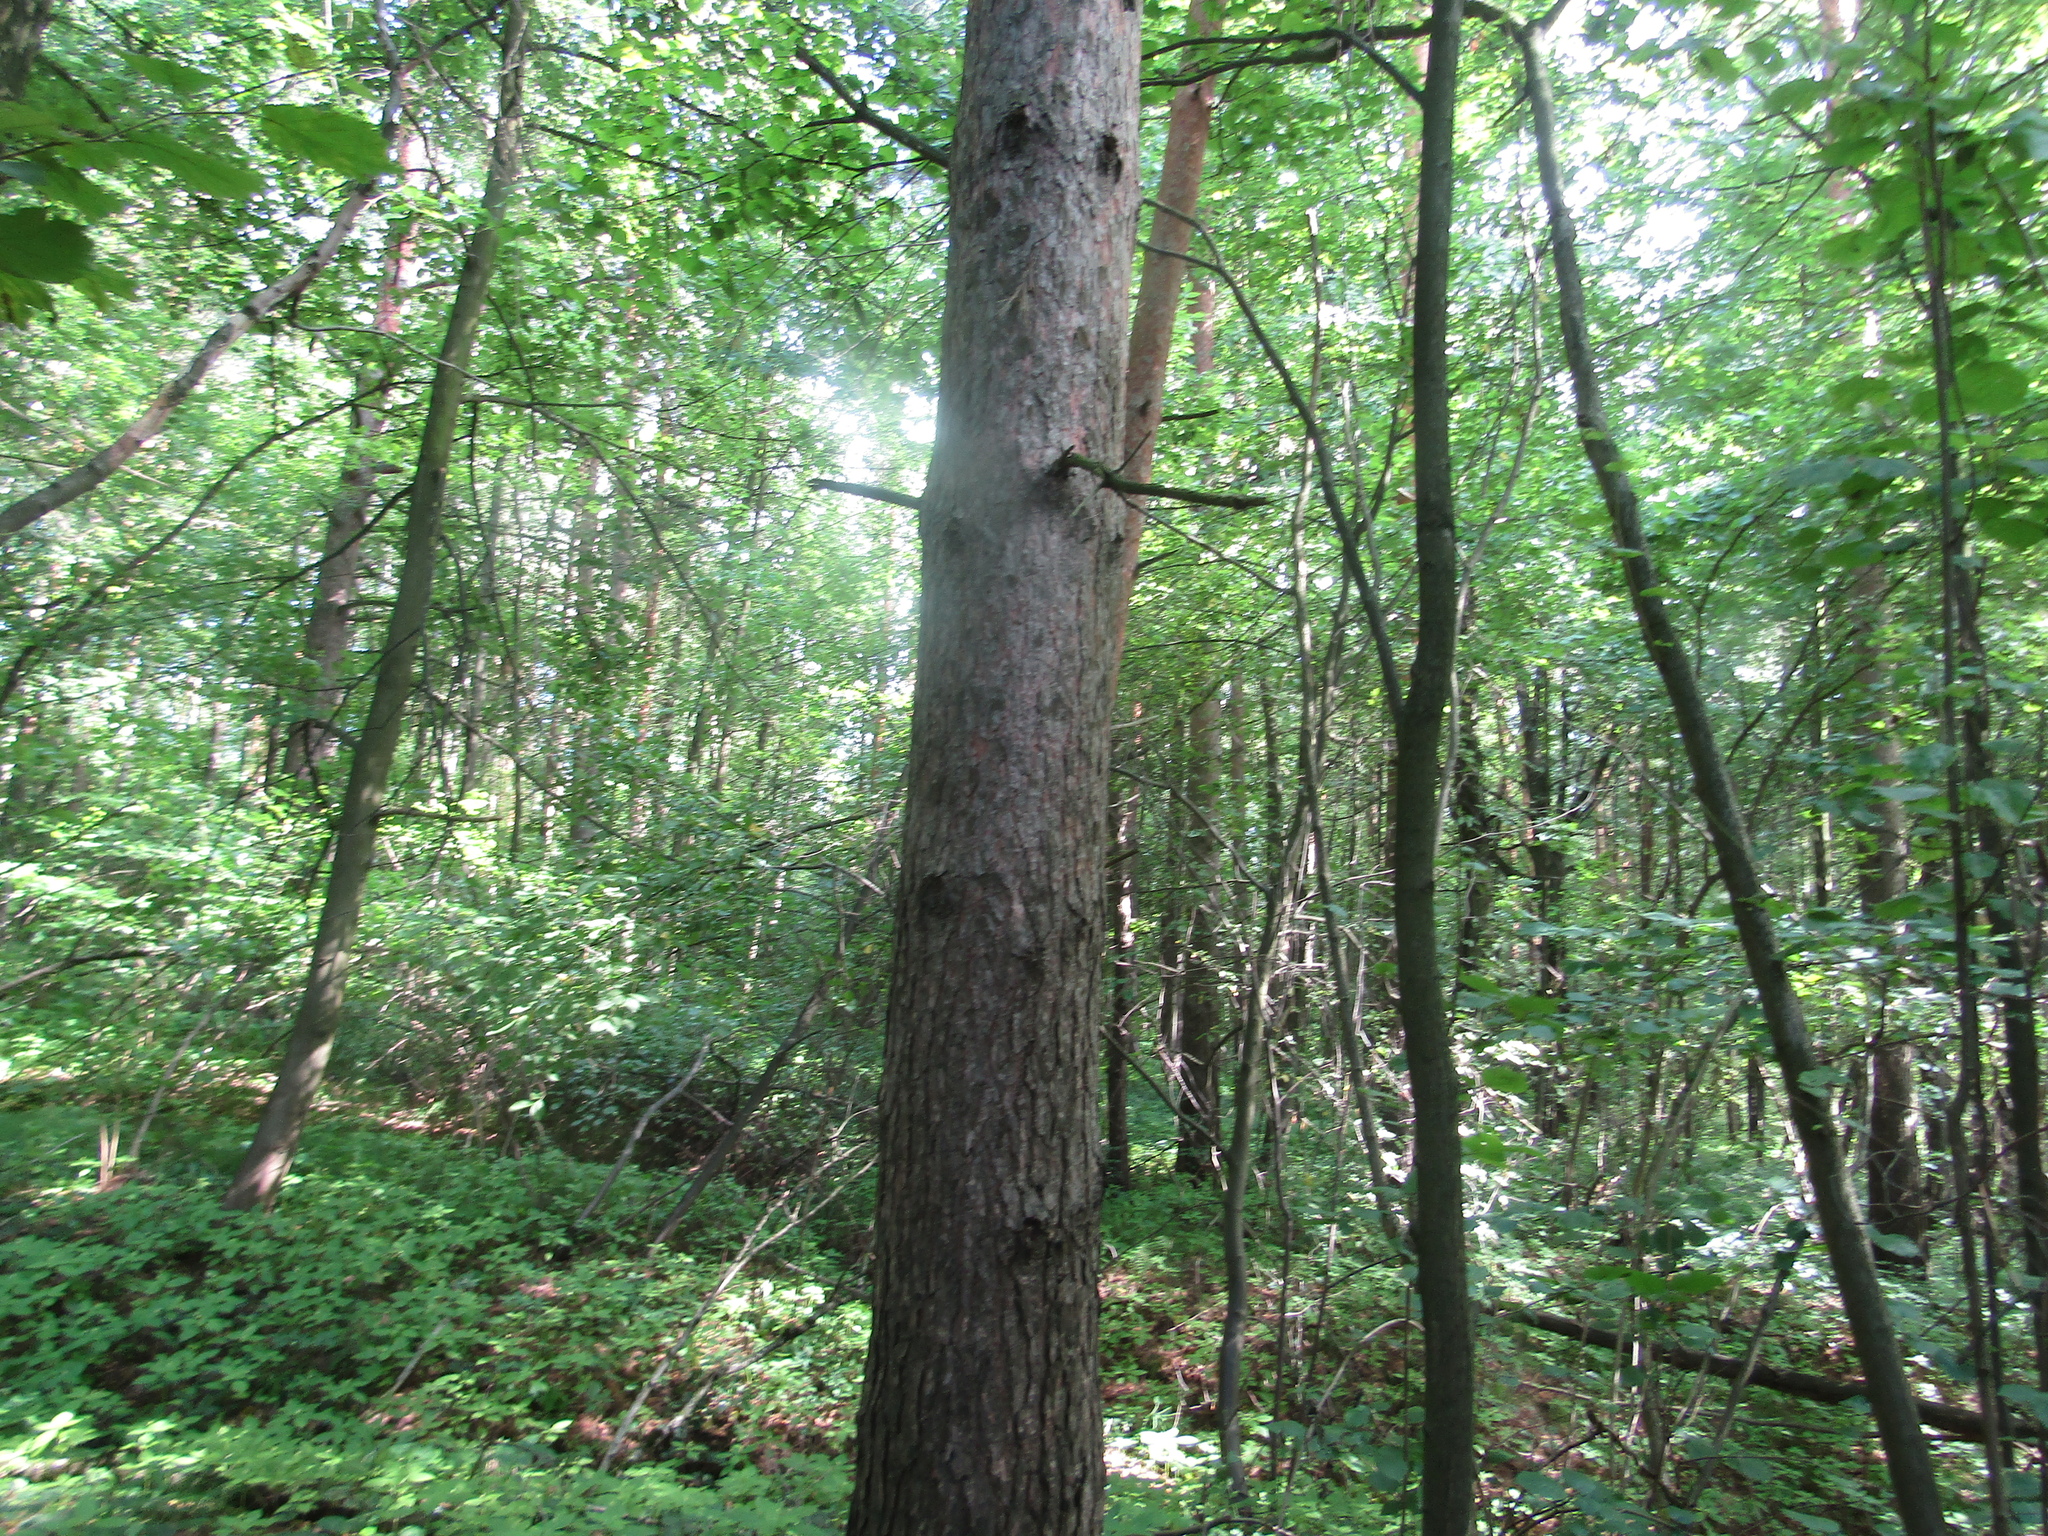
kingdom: Plantae
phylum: Tracheophyta
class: Pinopsida
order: Pinales
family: Pinaceae
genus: Pinus
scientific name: Pinus sylvestris
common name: Scots pine
